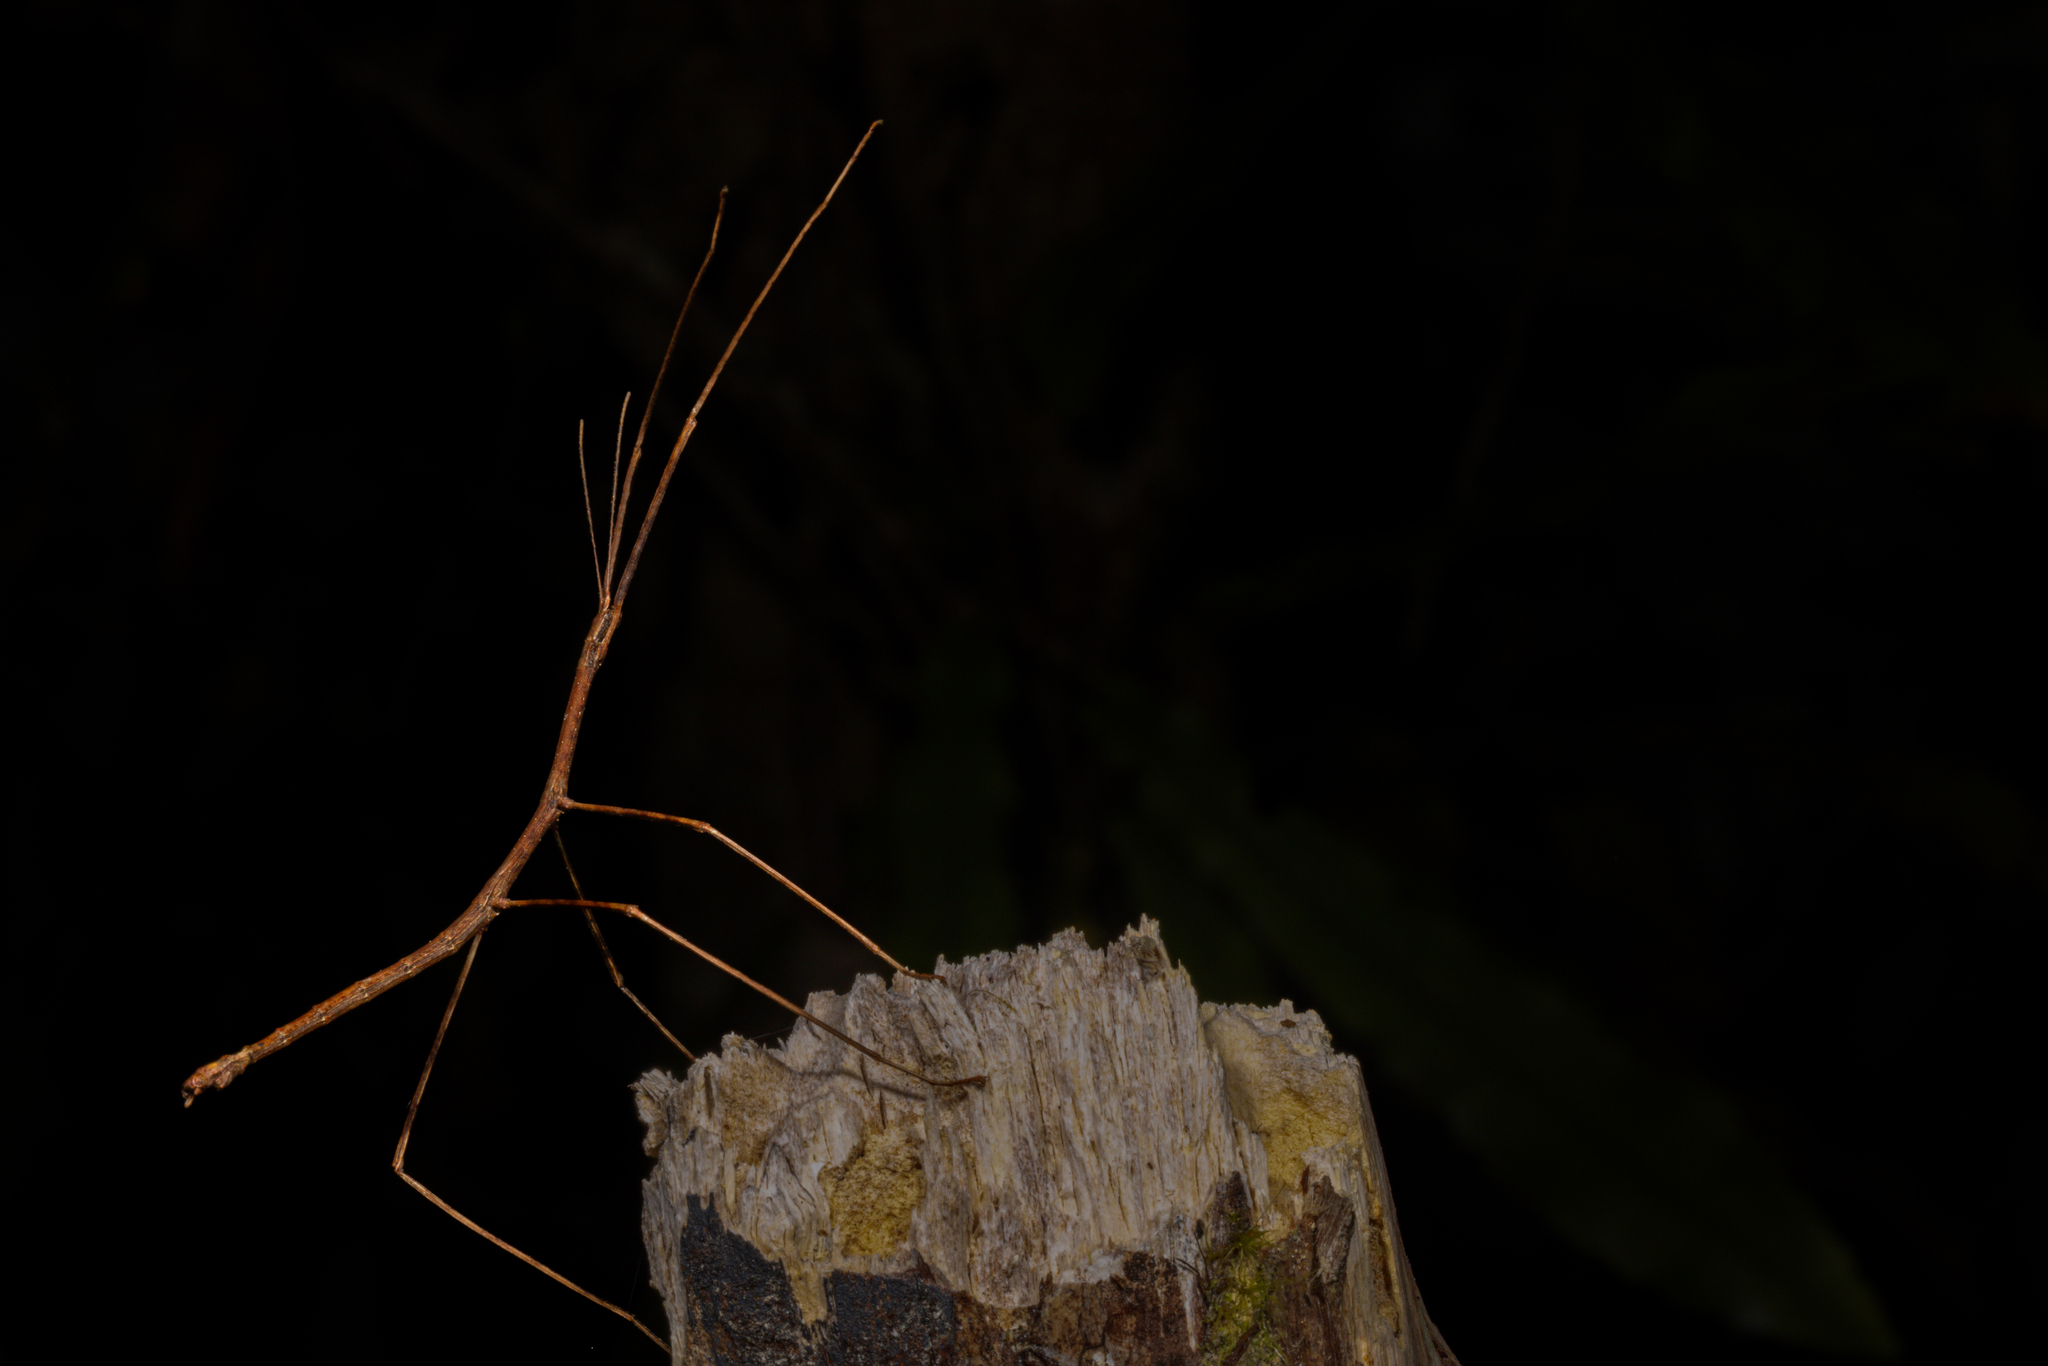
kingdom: Animalia
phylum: Arthropoda
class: Insecta
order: Phasmida
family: Phasmatidae
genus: Clitarchus
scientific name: Clitarchus hookeri
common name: Smooth stick insect
